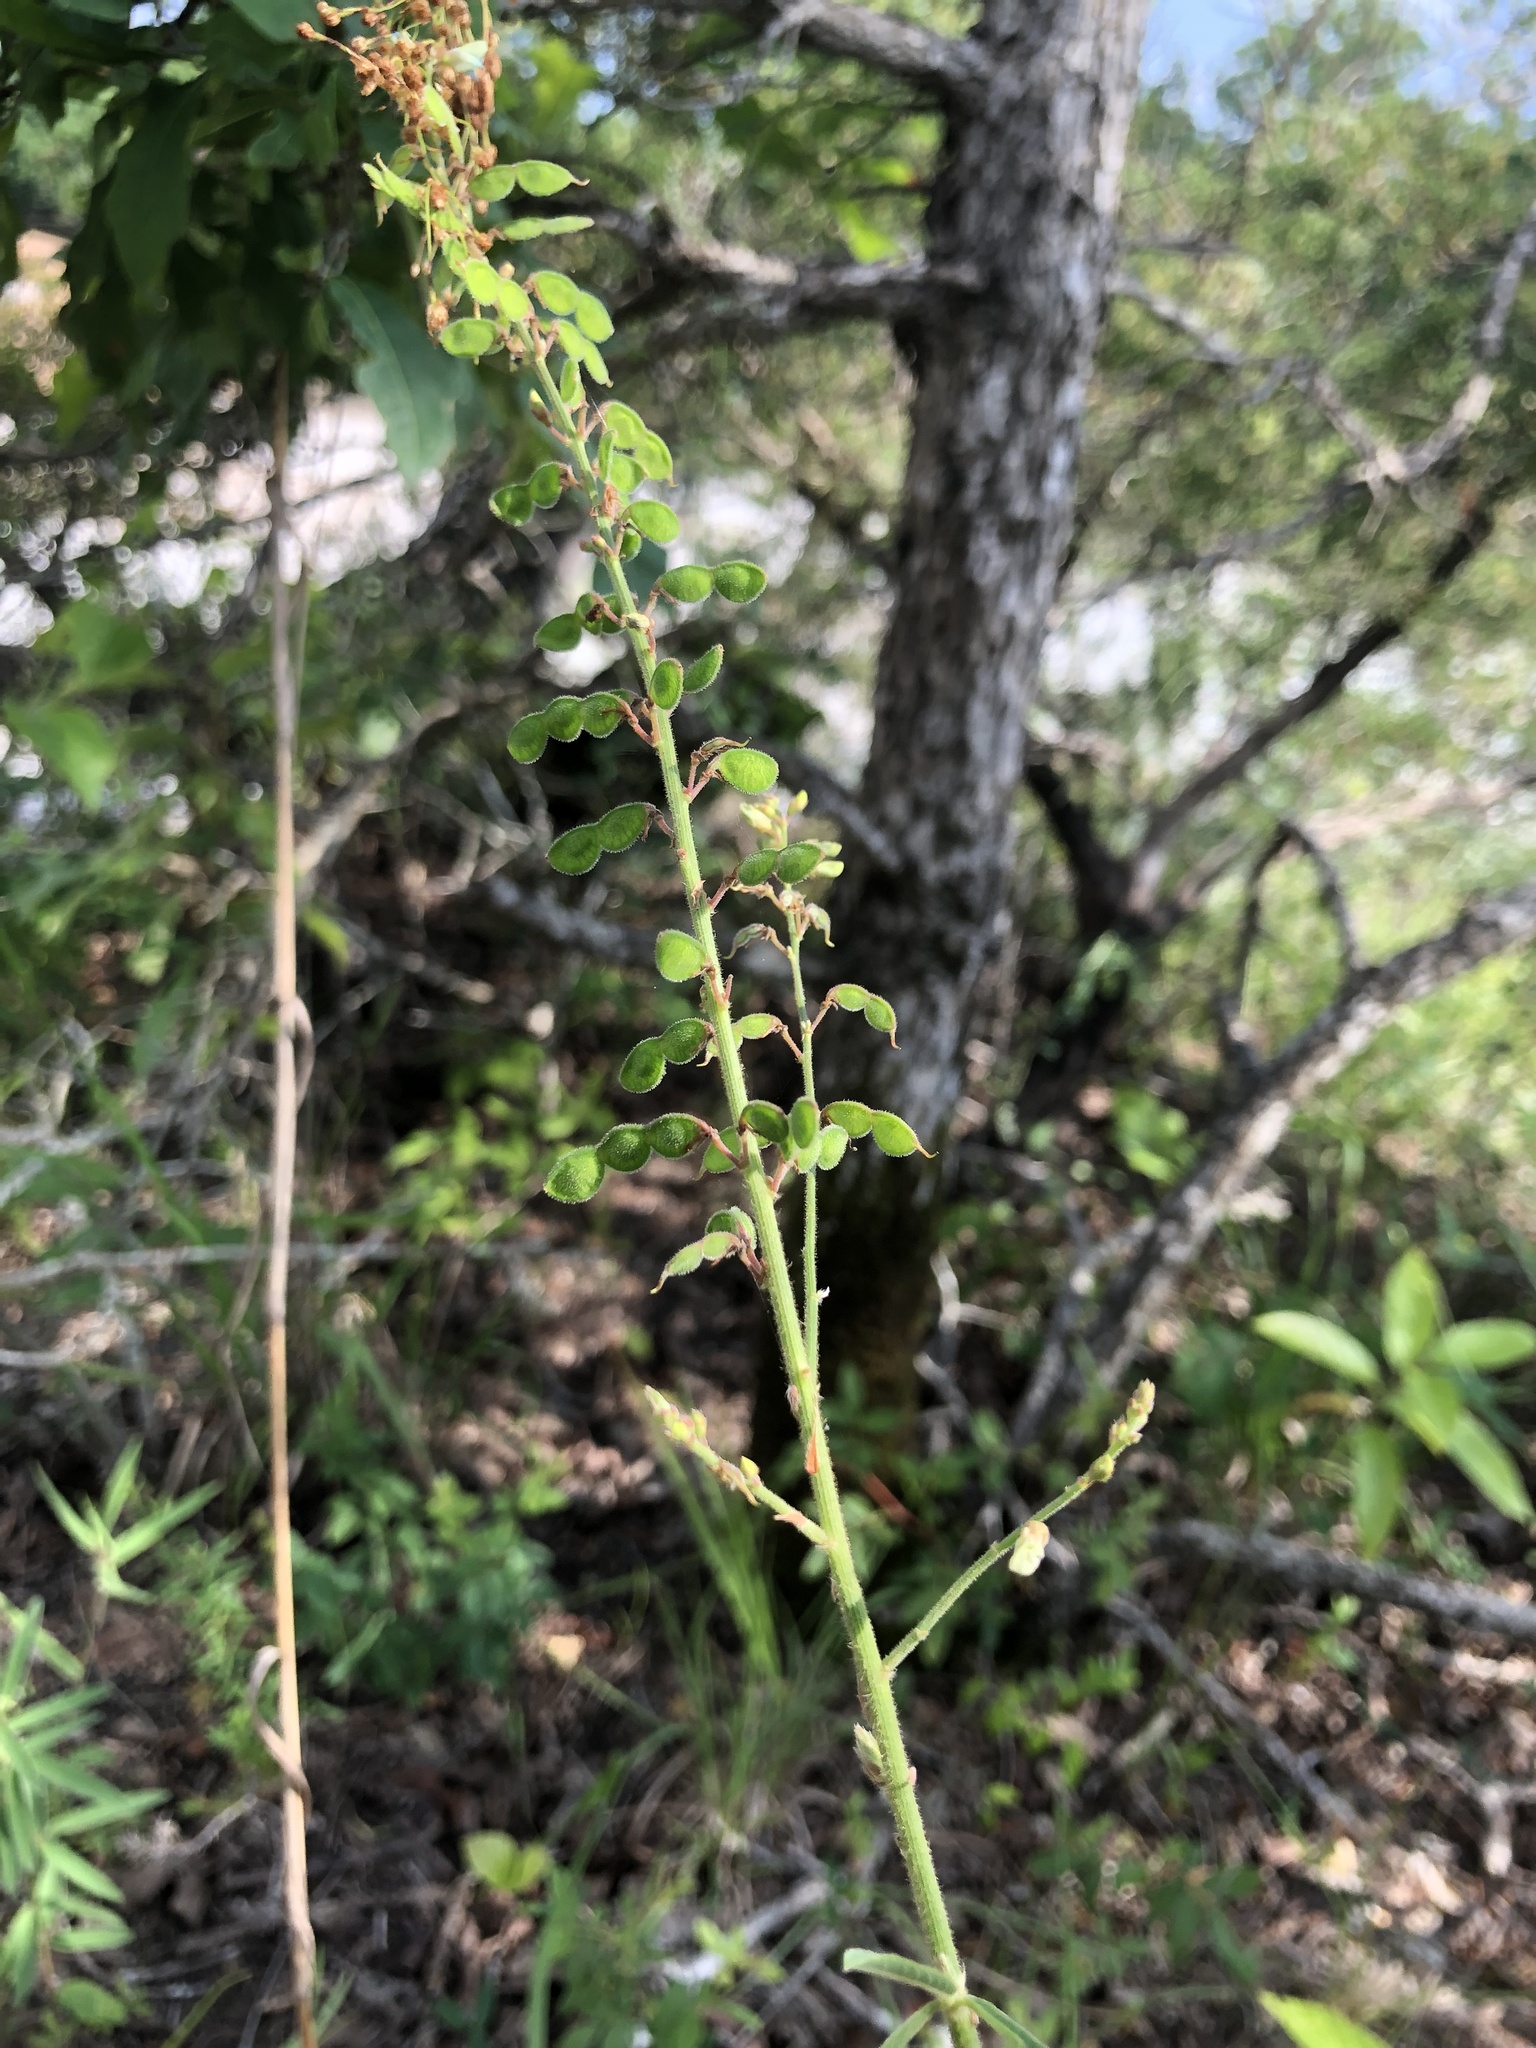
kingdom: Plantae
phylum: Tracheophyta
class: Magnoliopsida
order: Fabales
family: Fabaceae
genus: Desmodium
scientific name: Desmodium sessilifolium
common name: Sessile tick-clover
